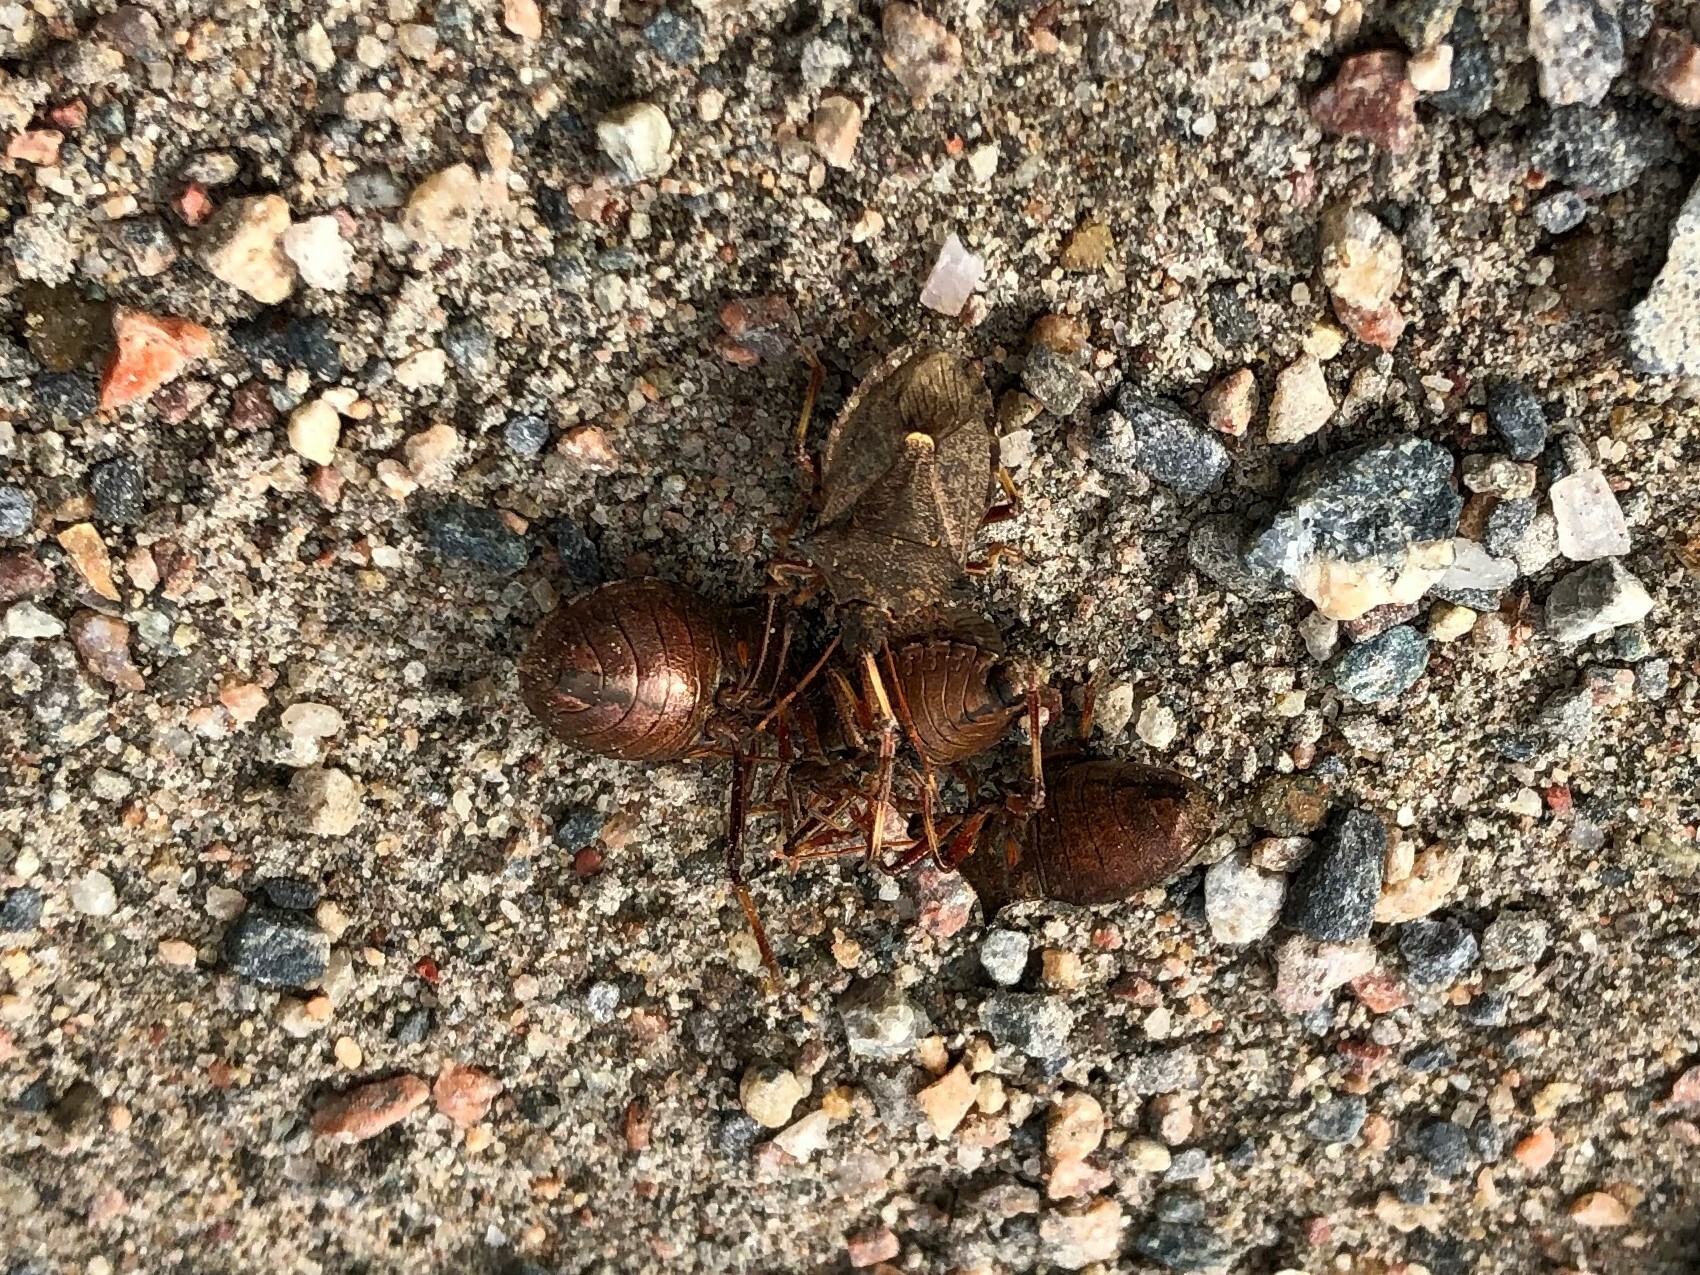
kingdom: Animalia
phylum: Arthropoda
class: Insecta
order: Hemiptera
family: Pentatomidae
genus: Picromerus
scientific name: Picromerus bidens
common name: Spiked shieldbug
